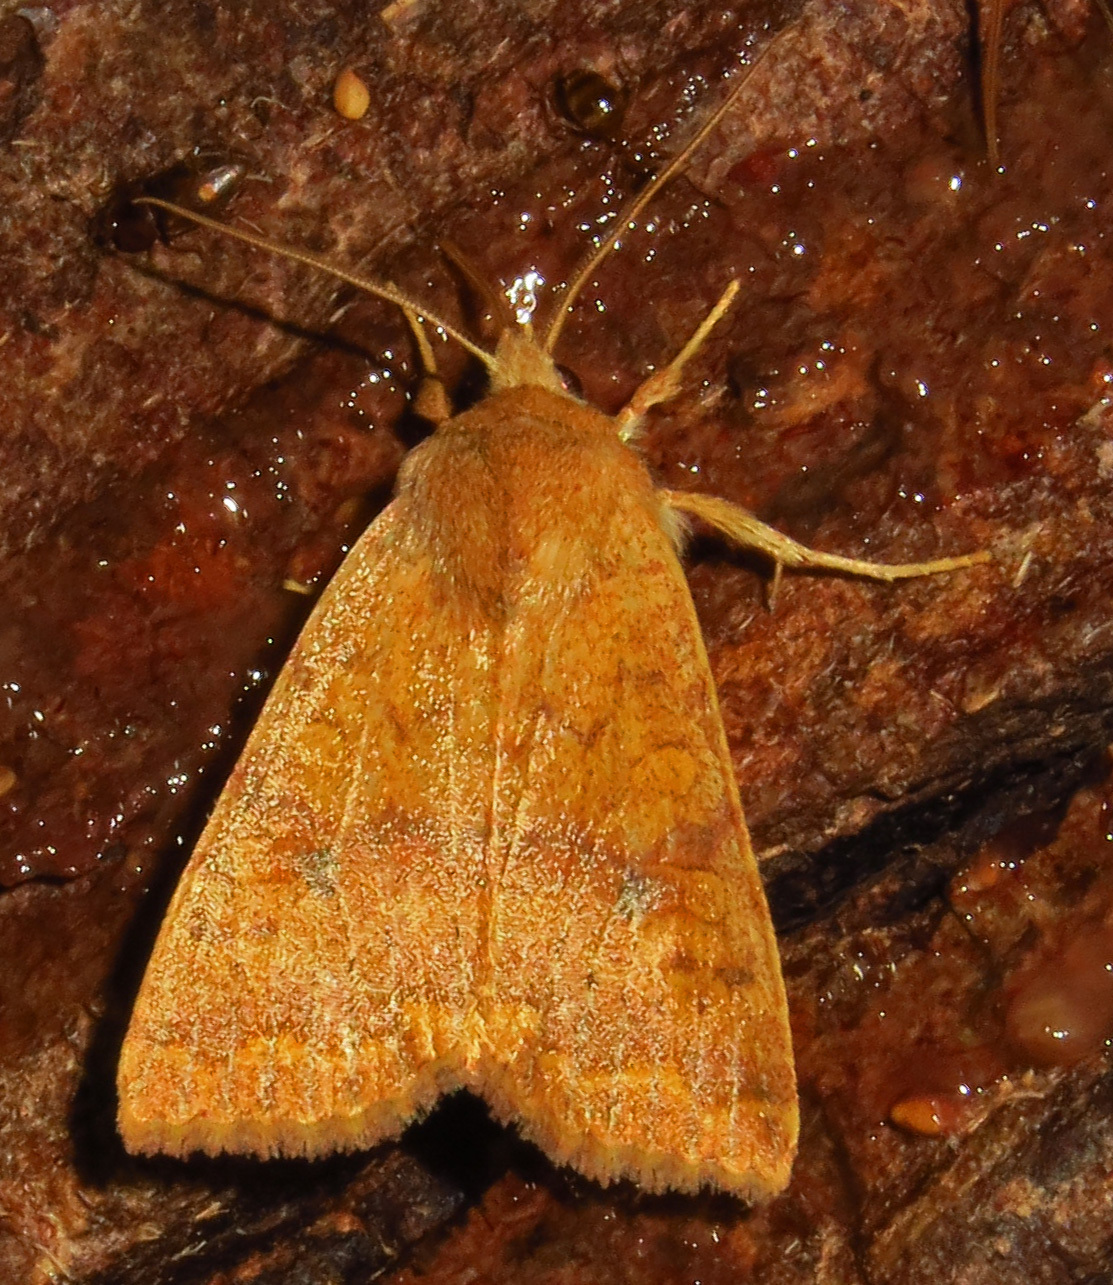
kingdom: Animalia
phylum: Arthropoda
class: Insecta
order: Lepidoptera
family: Noctuidae
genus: Agrochola
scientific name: Agrochola bicolorago
